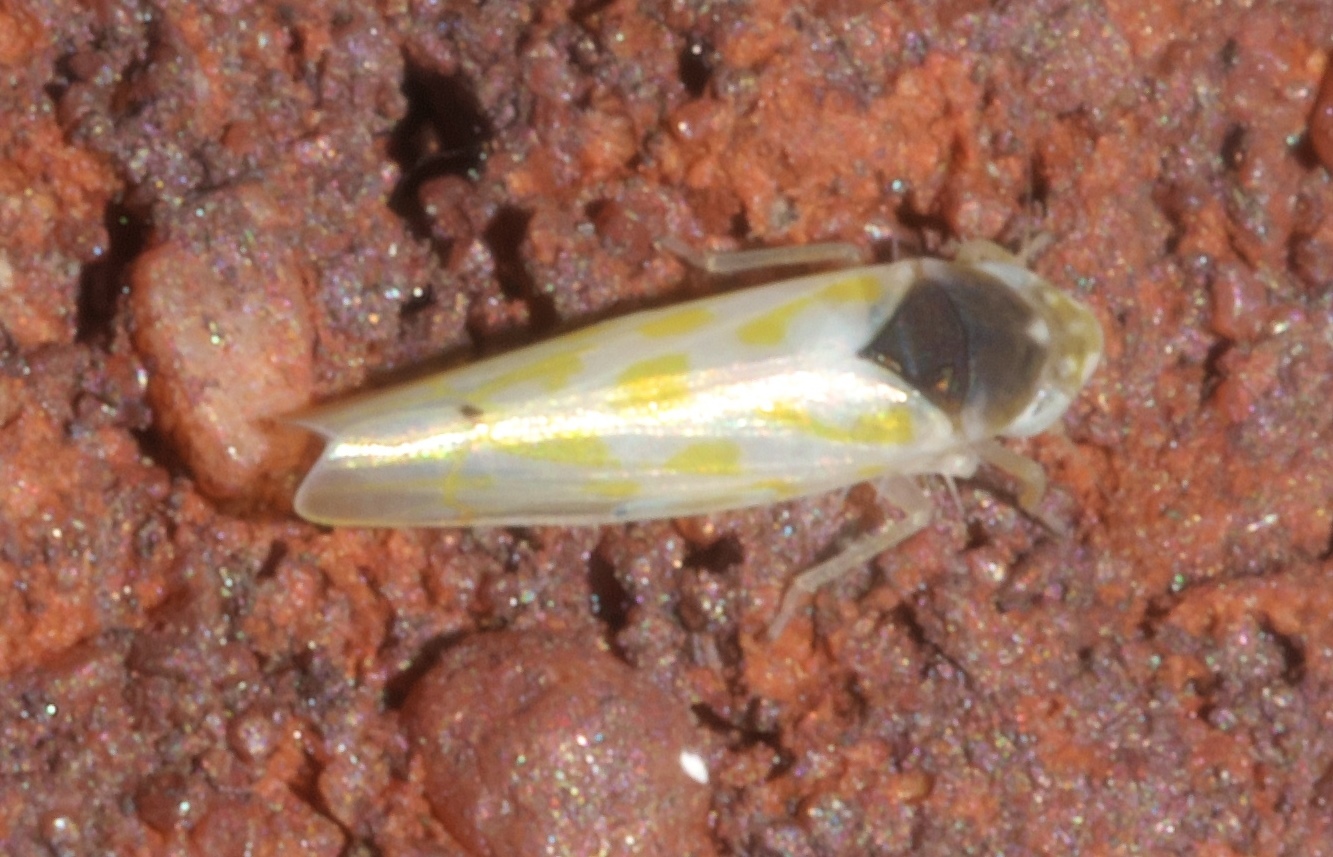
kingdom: Animalia
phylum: Arthropoda
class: Insecta
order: Hemiptera
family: Cicadellidae
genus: Eratoneura
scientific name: Eratoneura ardens
